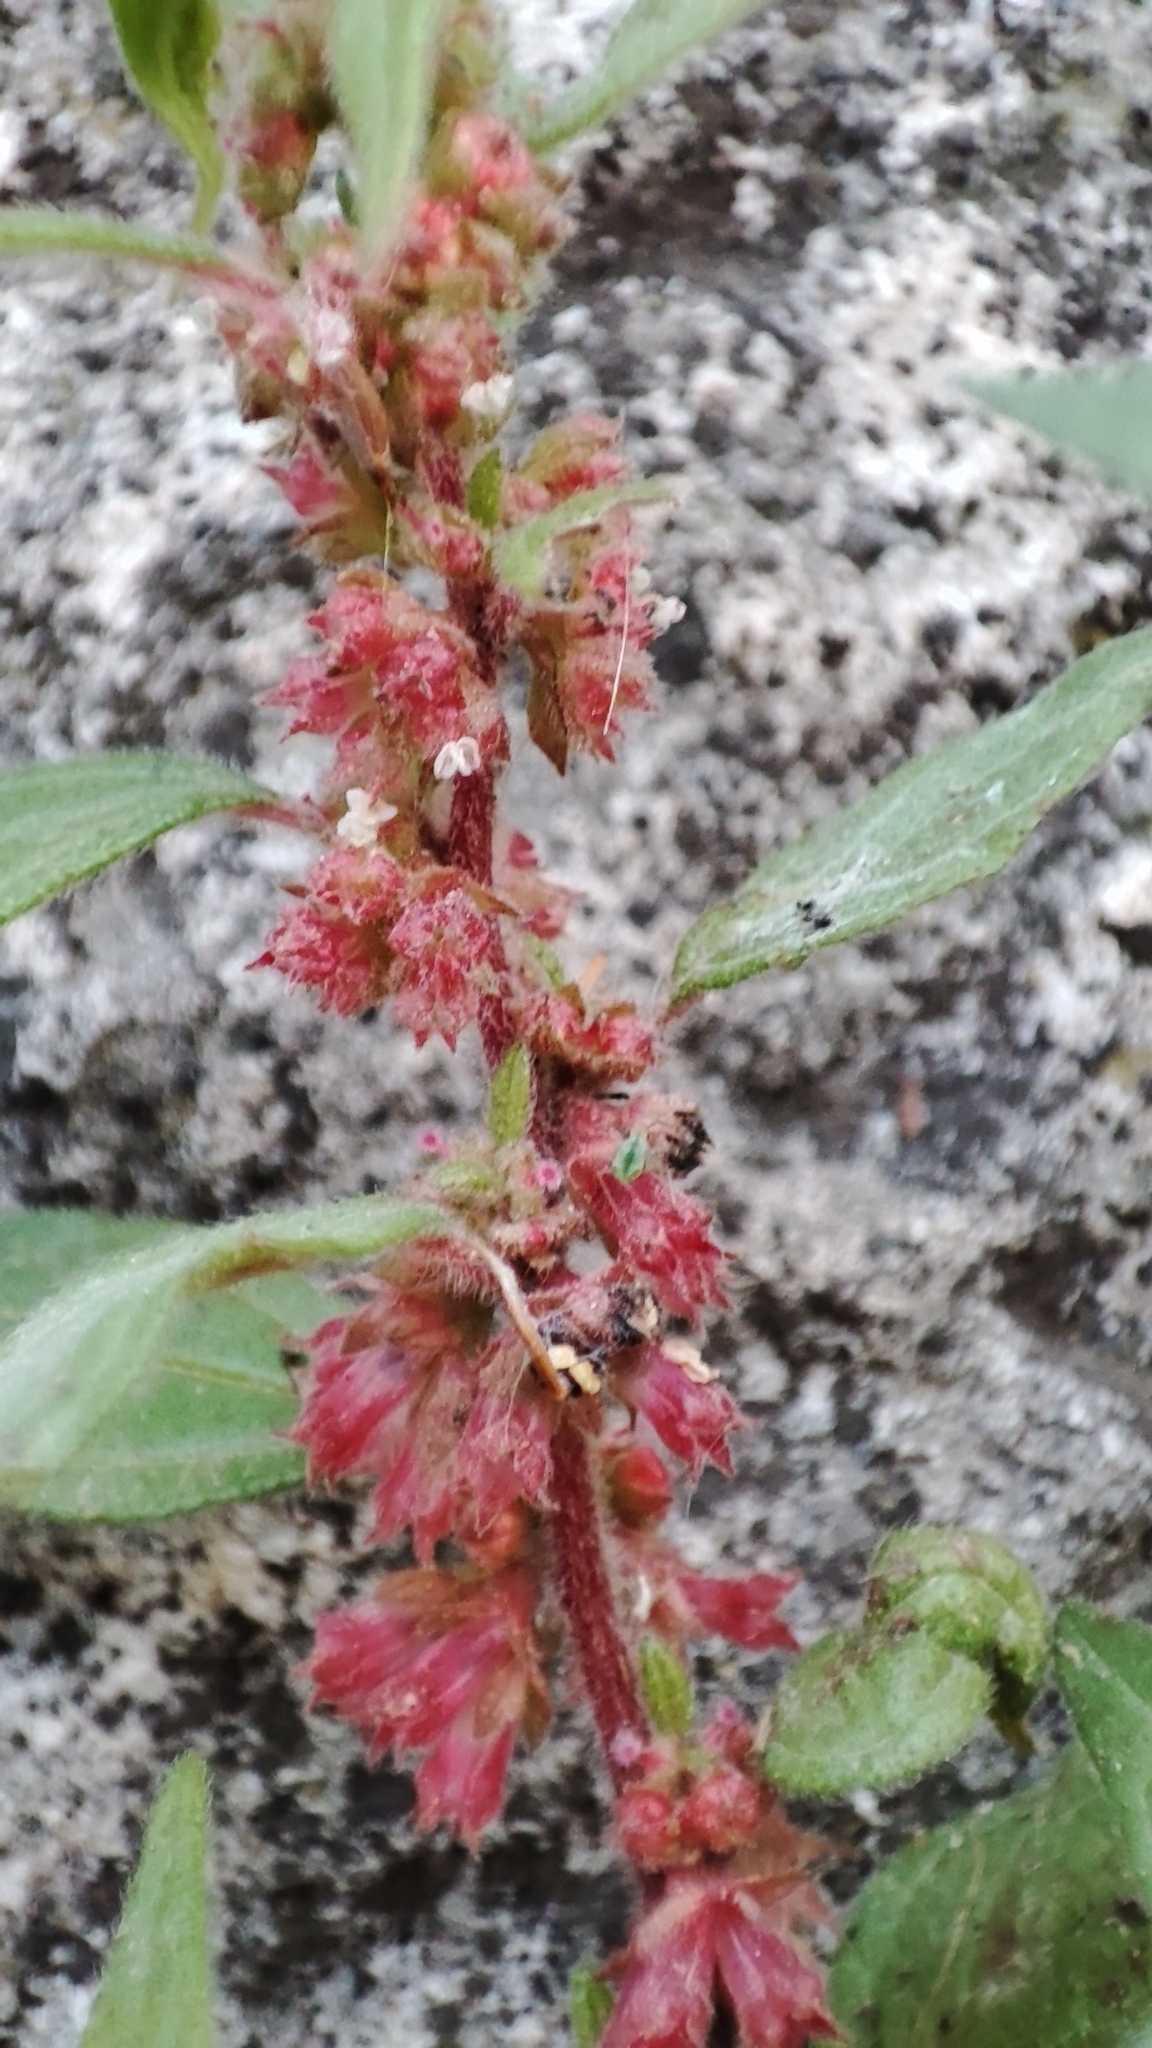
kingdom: Plantae
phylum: Tracheophyta
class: Magnoliopsida
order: Rosales
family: Urticaceae
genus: Parietaria
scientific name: Parietaria judaica
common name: Pellitory-of-the-wall
